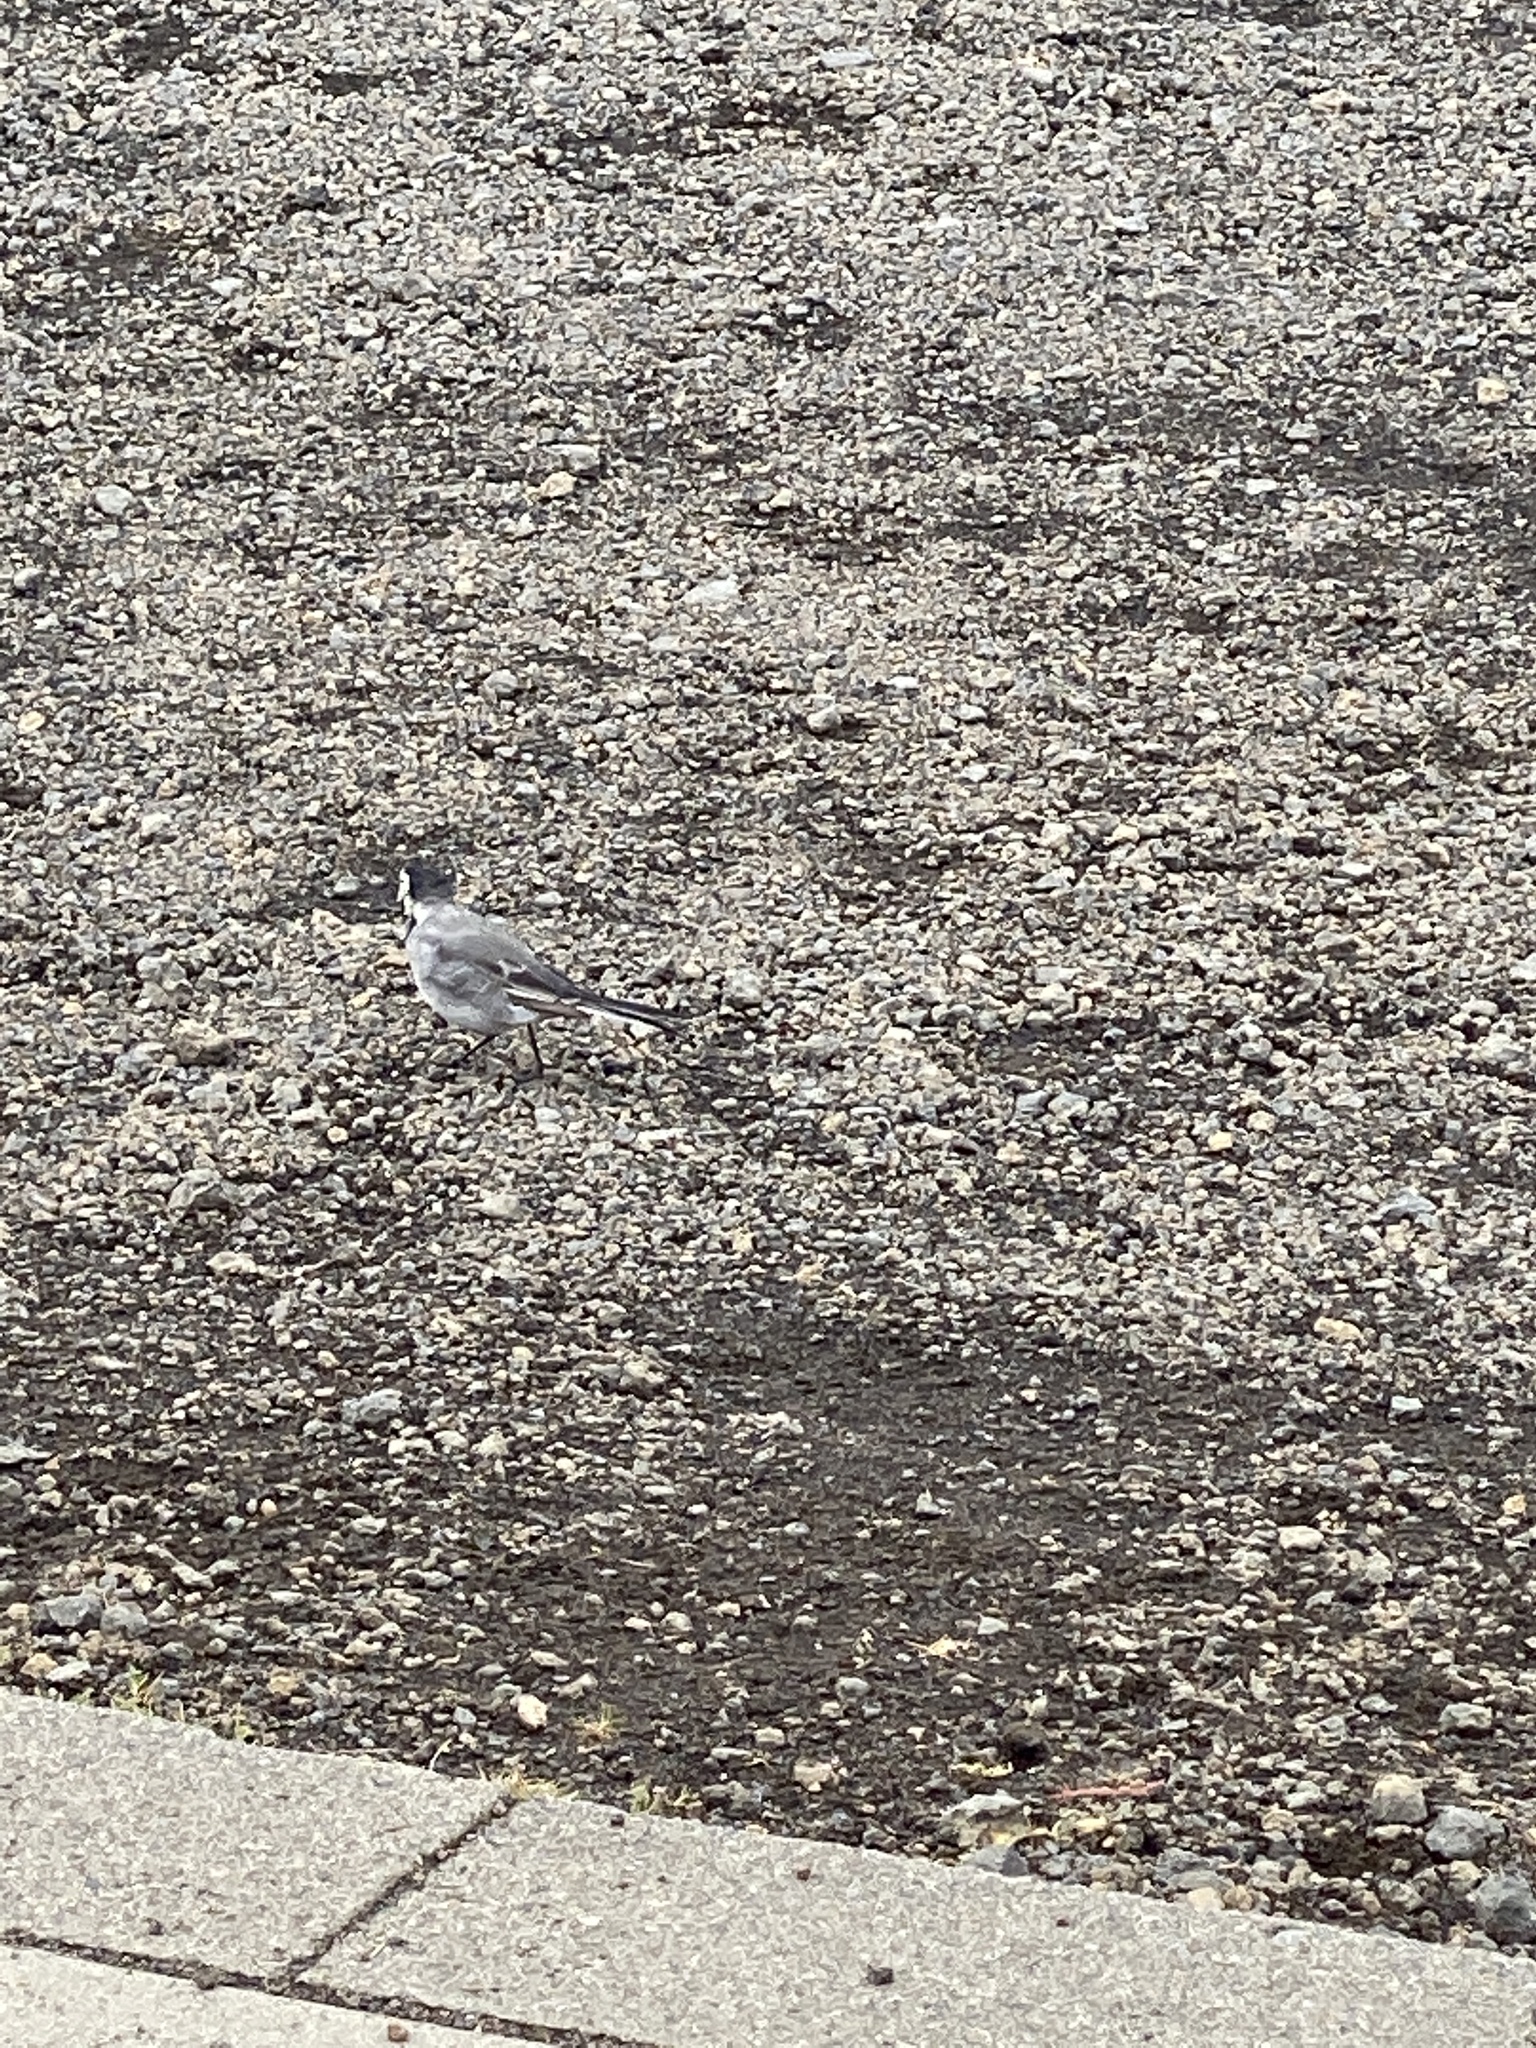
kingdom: Animalia
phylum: Chordata
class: Aves
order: Passeriformes
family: Motacillidae
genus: Motacilla
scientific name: Motacilla alba
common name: White wagtail
